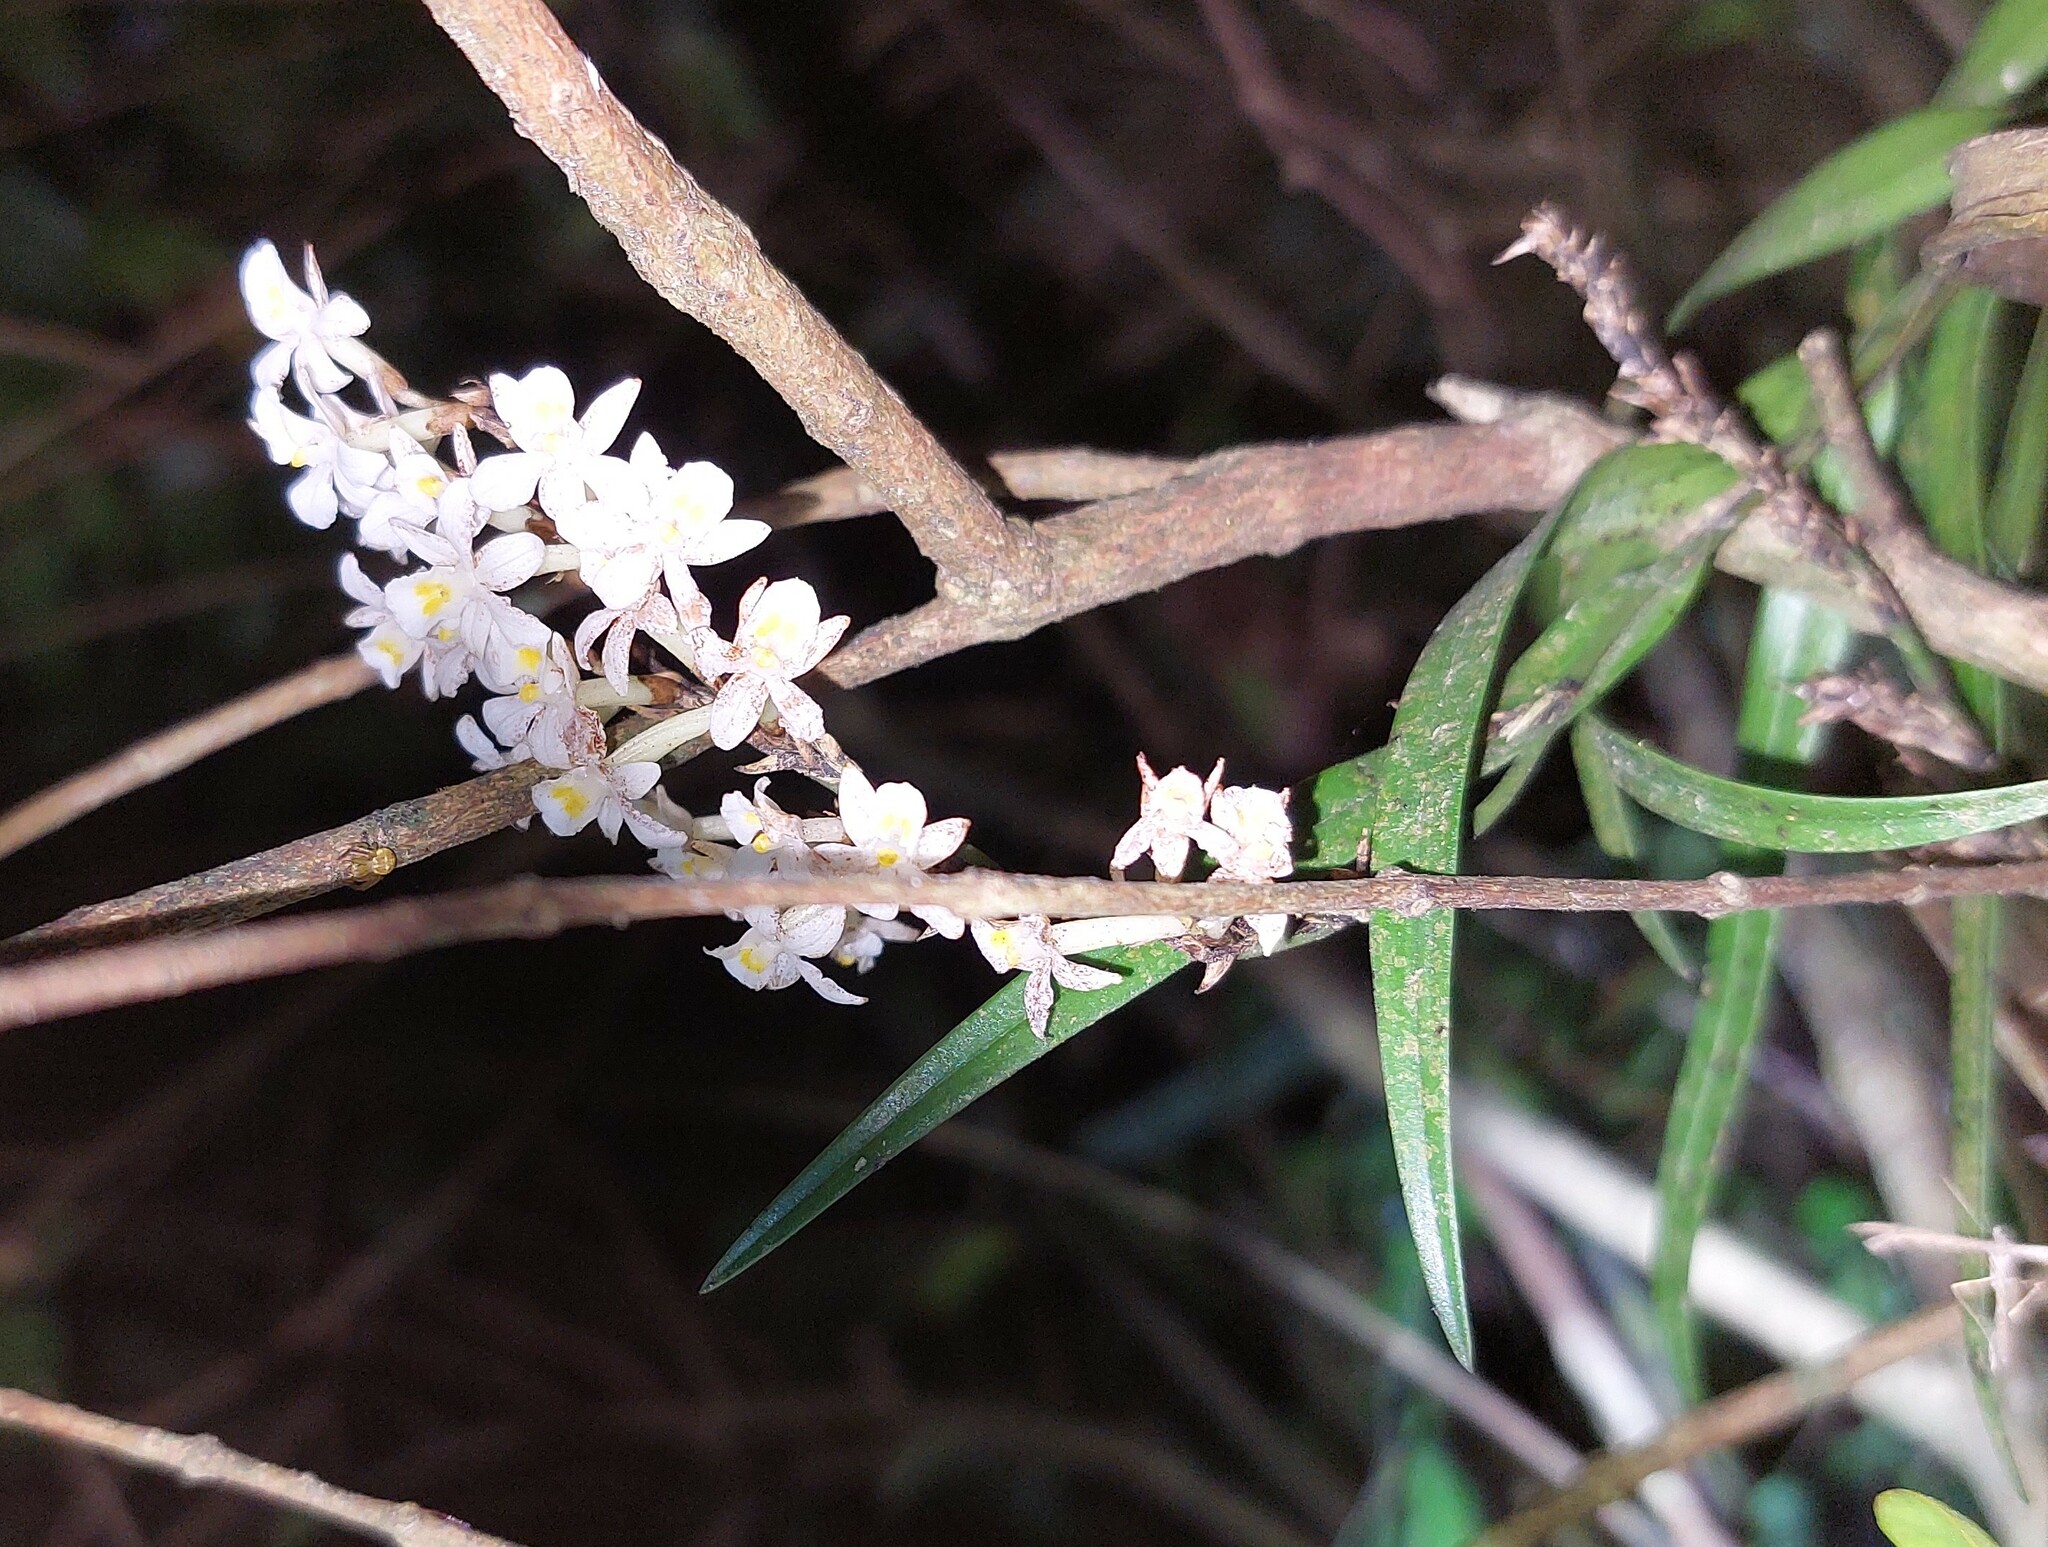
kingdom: Plantae
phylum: Tracheophyta
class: Liliopsida
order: Asparagales
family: Orchidaceae
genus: Earina
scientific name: Earina autumnalis
